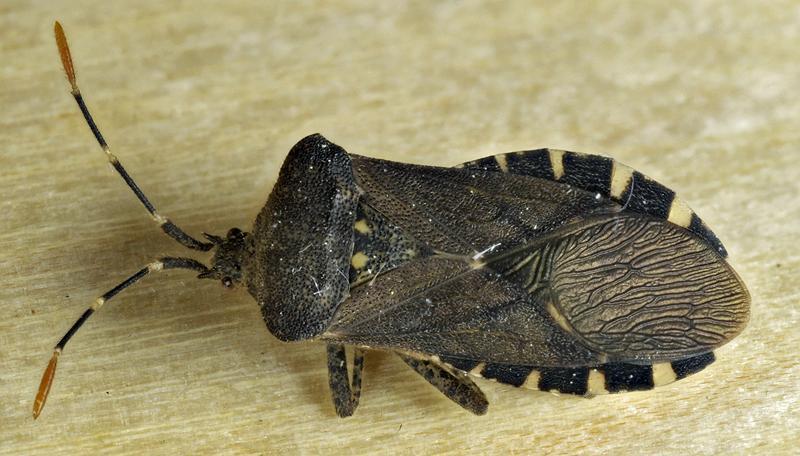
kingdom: Animalia
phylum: Arthropoda
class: Insecta
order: Hemiptera
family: Coreidae
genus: Anasa
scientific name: Anasa armigera
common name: Horned squash bug
